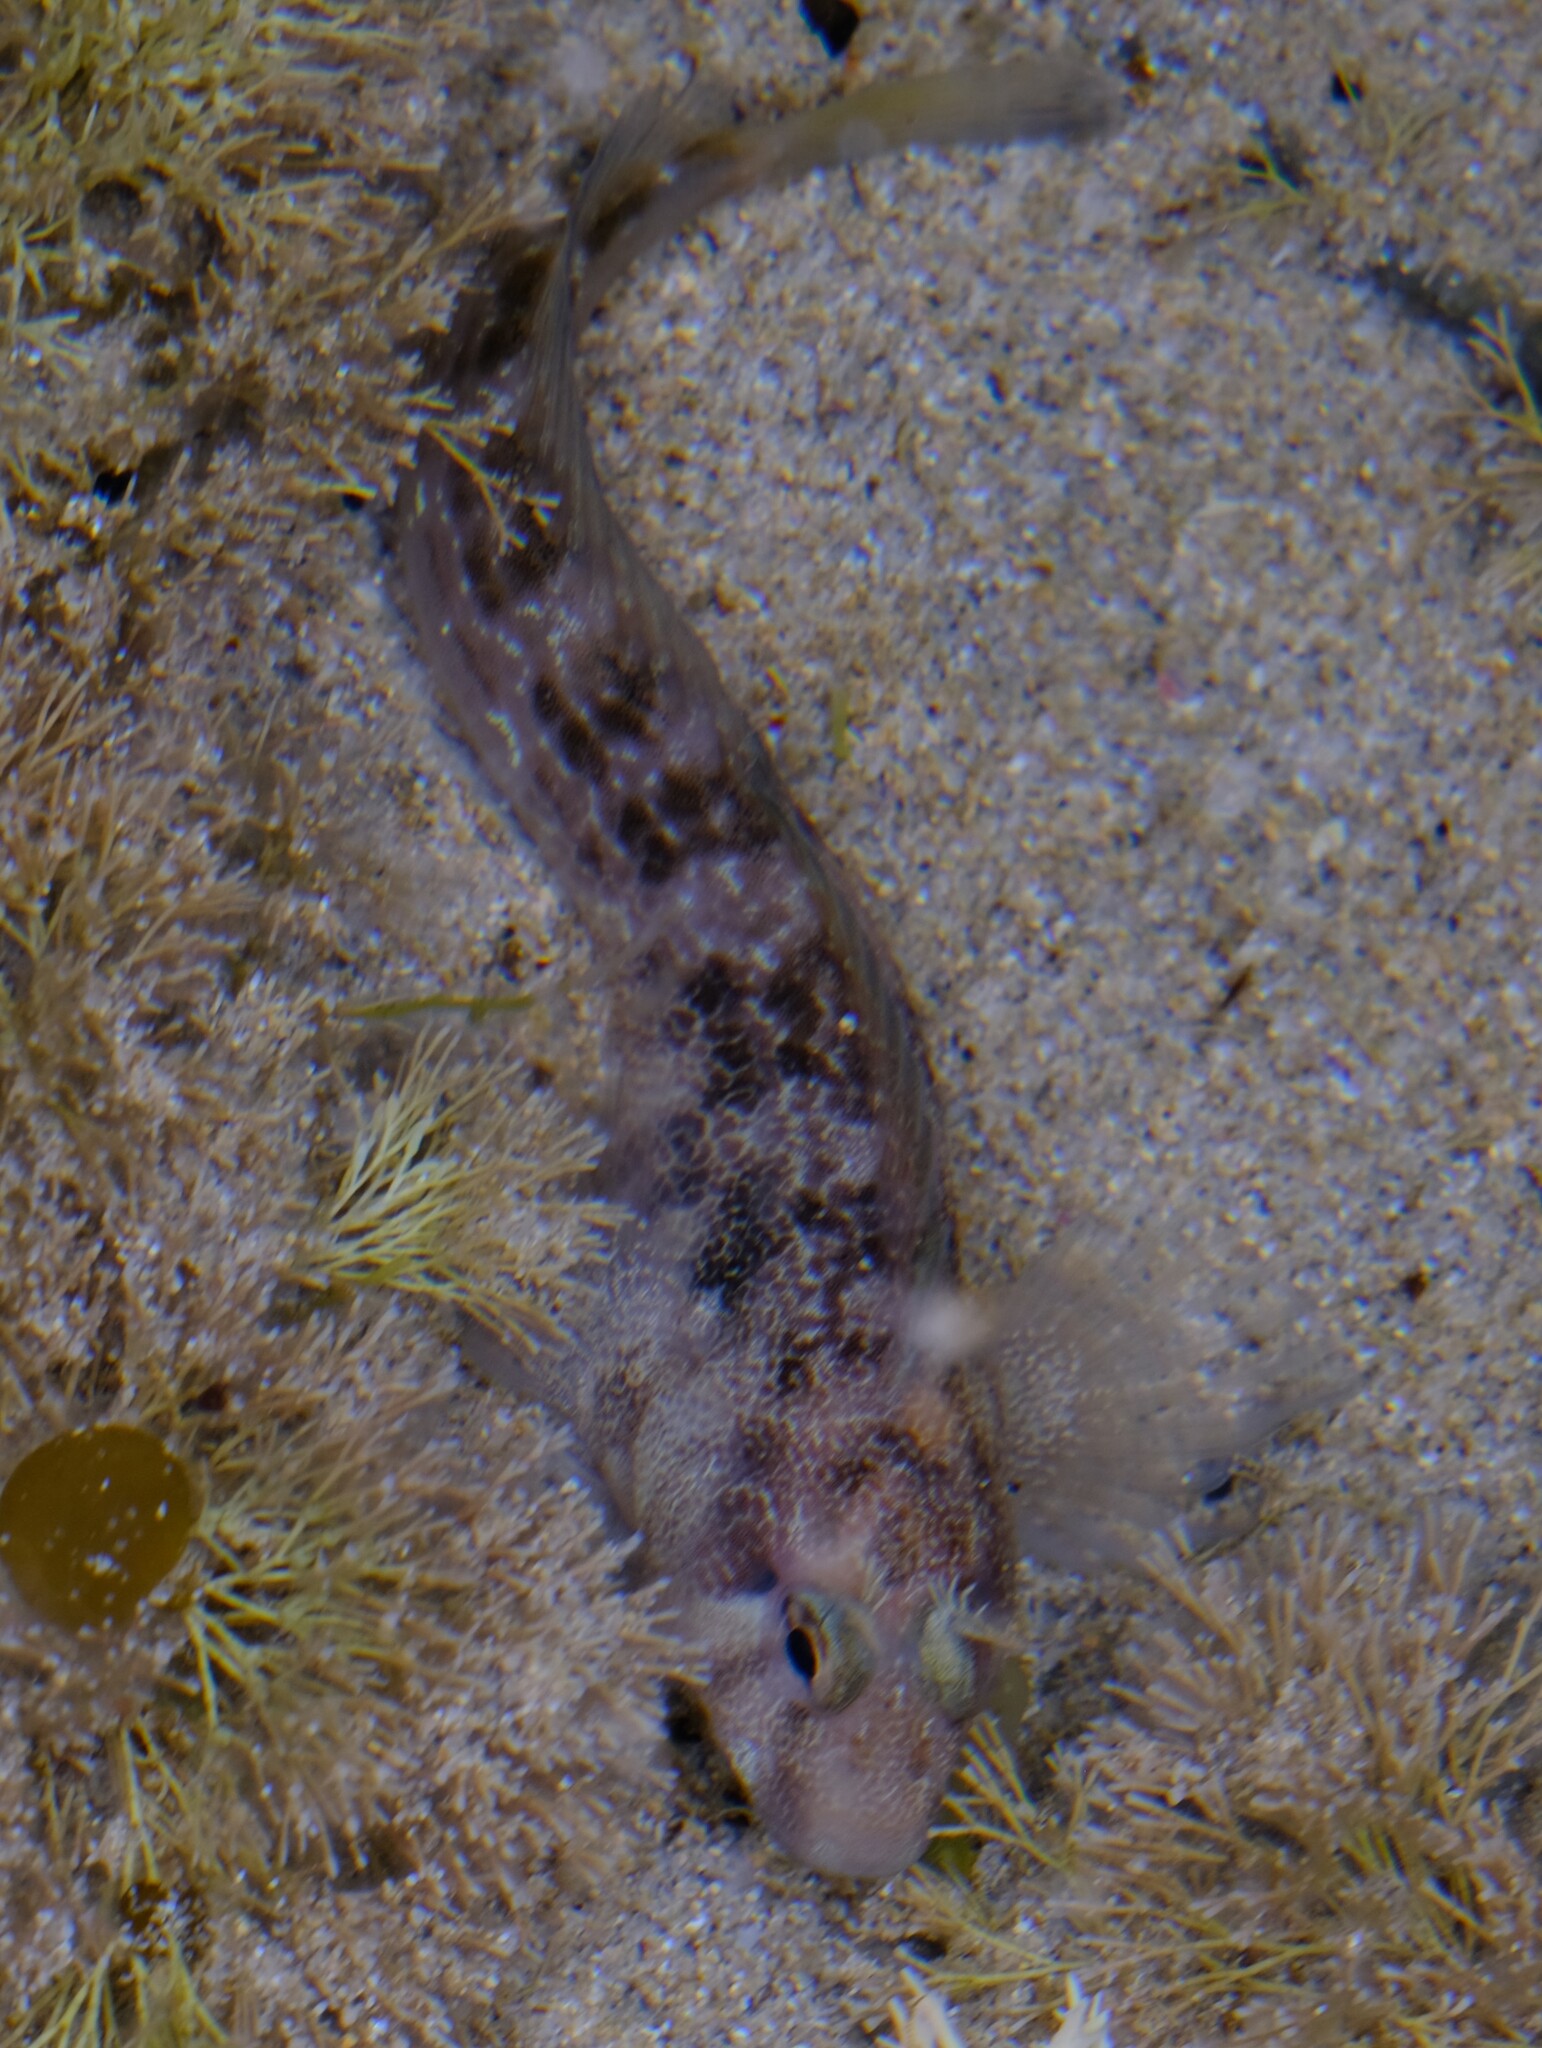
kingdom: Animalia
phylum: Chordata
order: Perciformes
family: Blenniidae
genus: Parablennius
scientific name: Parablennius tasmanianus
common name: Tasmanian blenny
